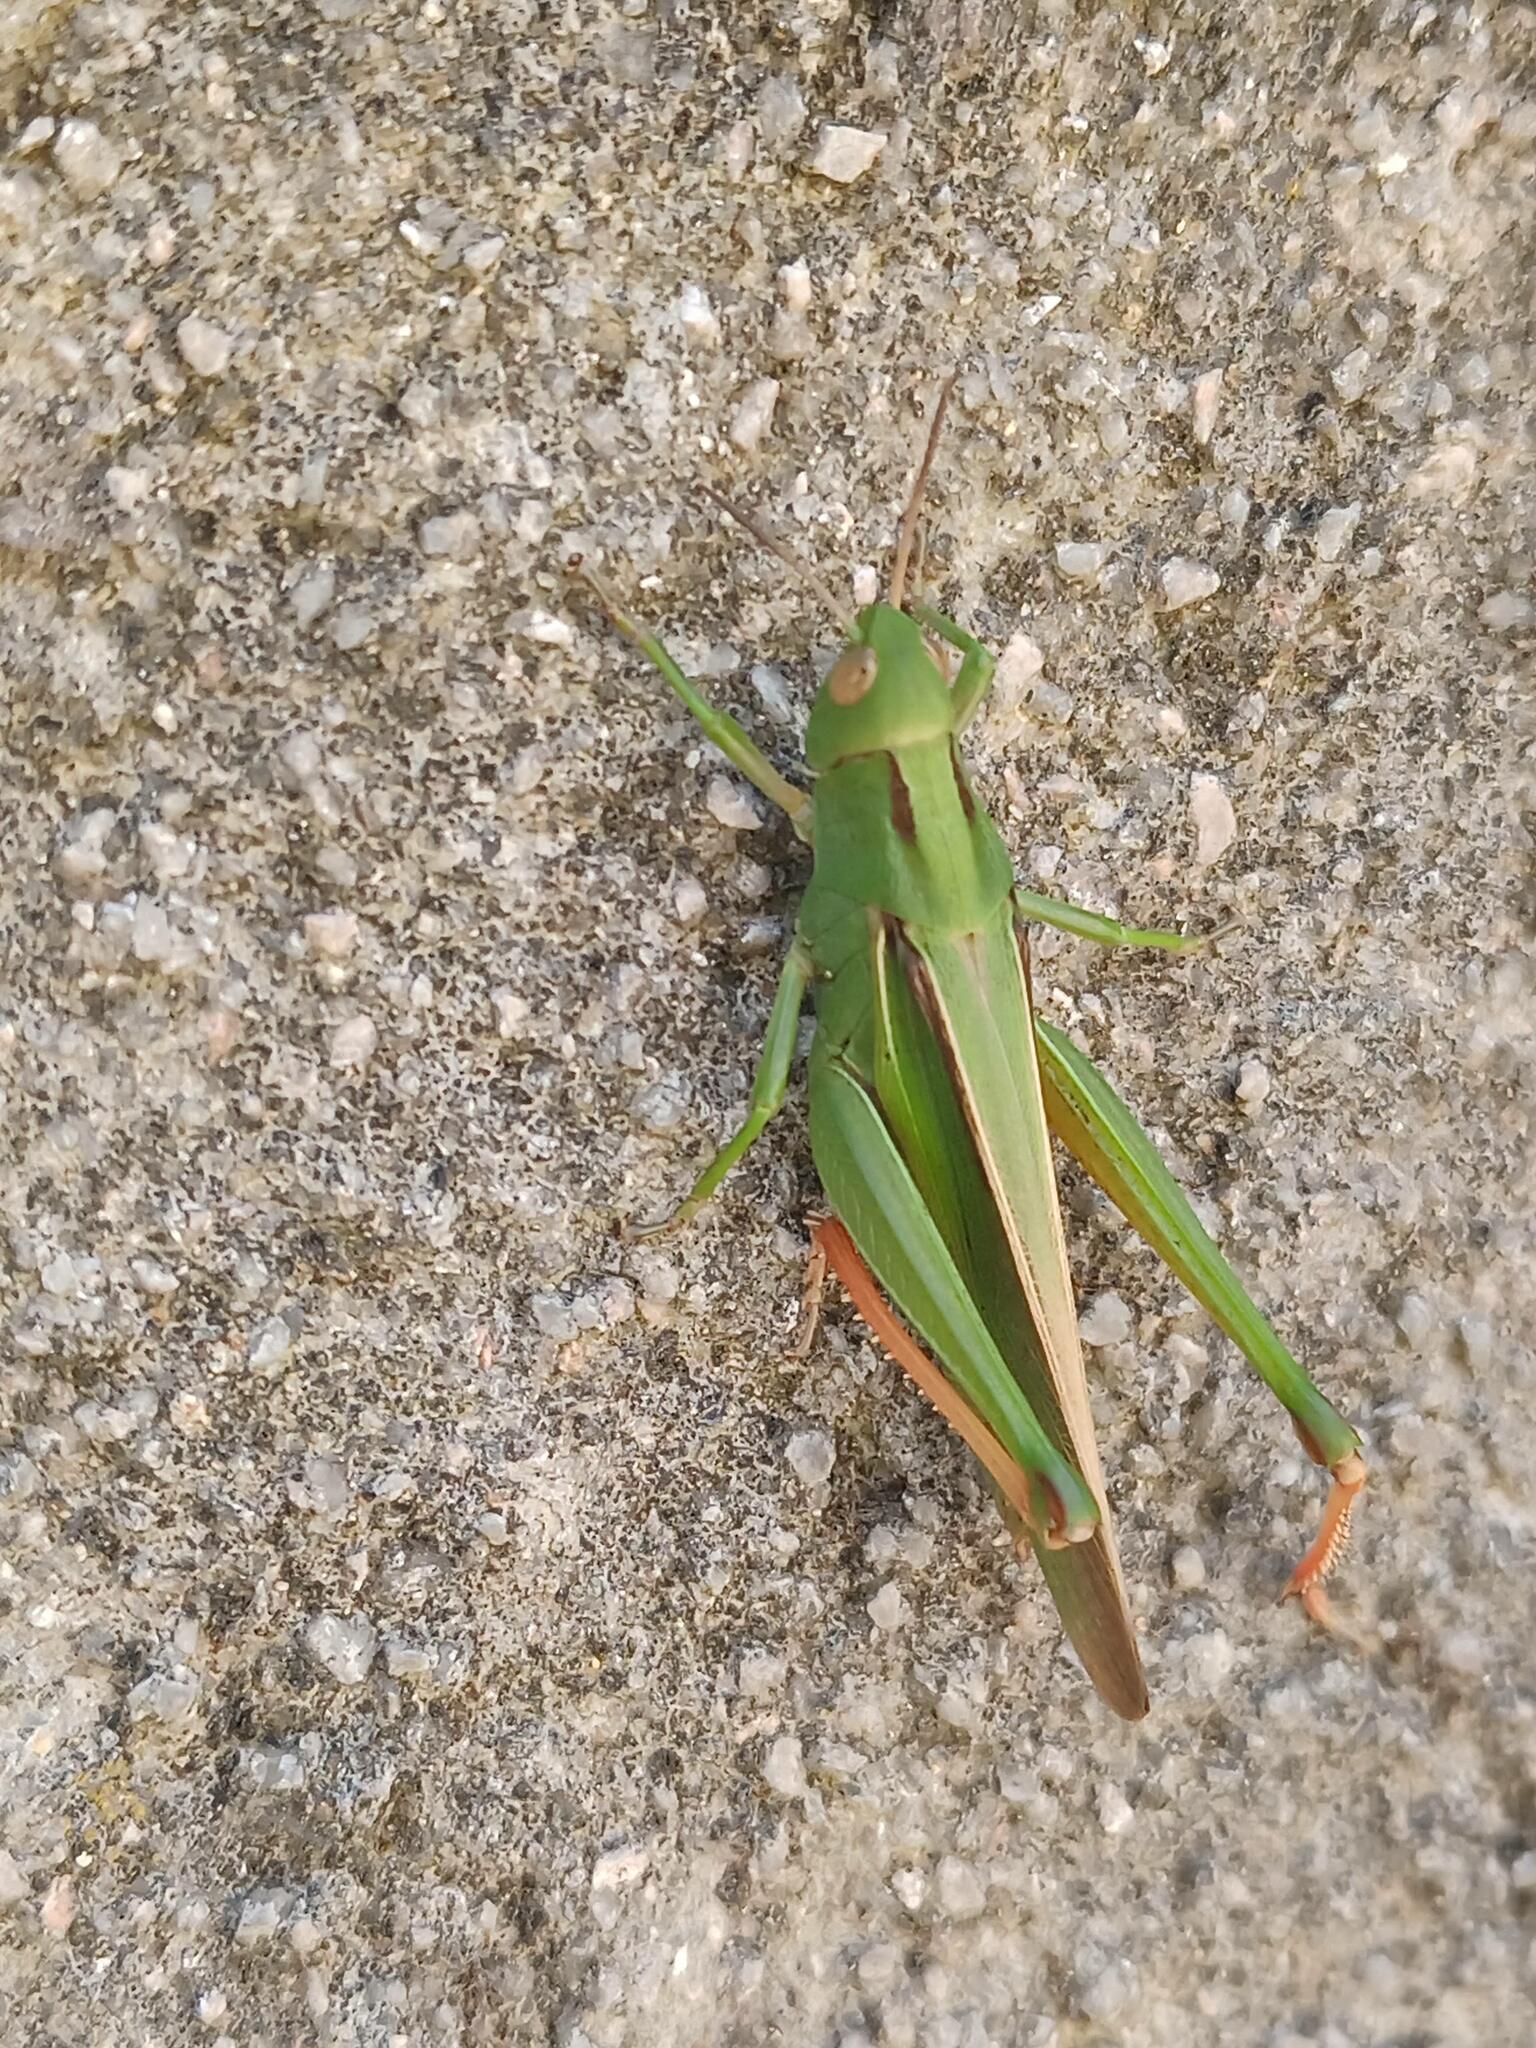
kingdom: Animalia
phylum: Arthropoda
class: Insecta
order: Orthoptera
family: Acrididae
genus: Paracinema
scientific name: Paracinema tricolor
